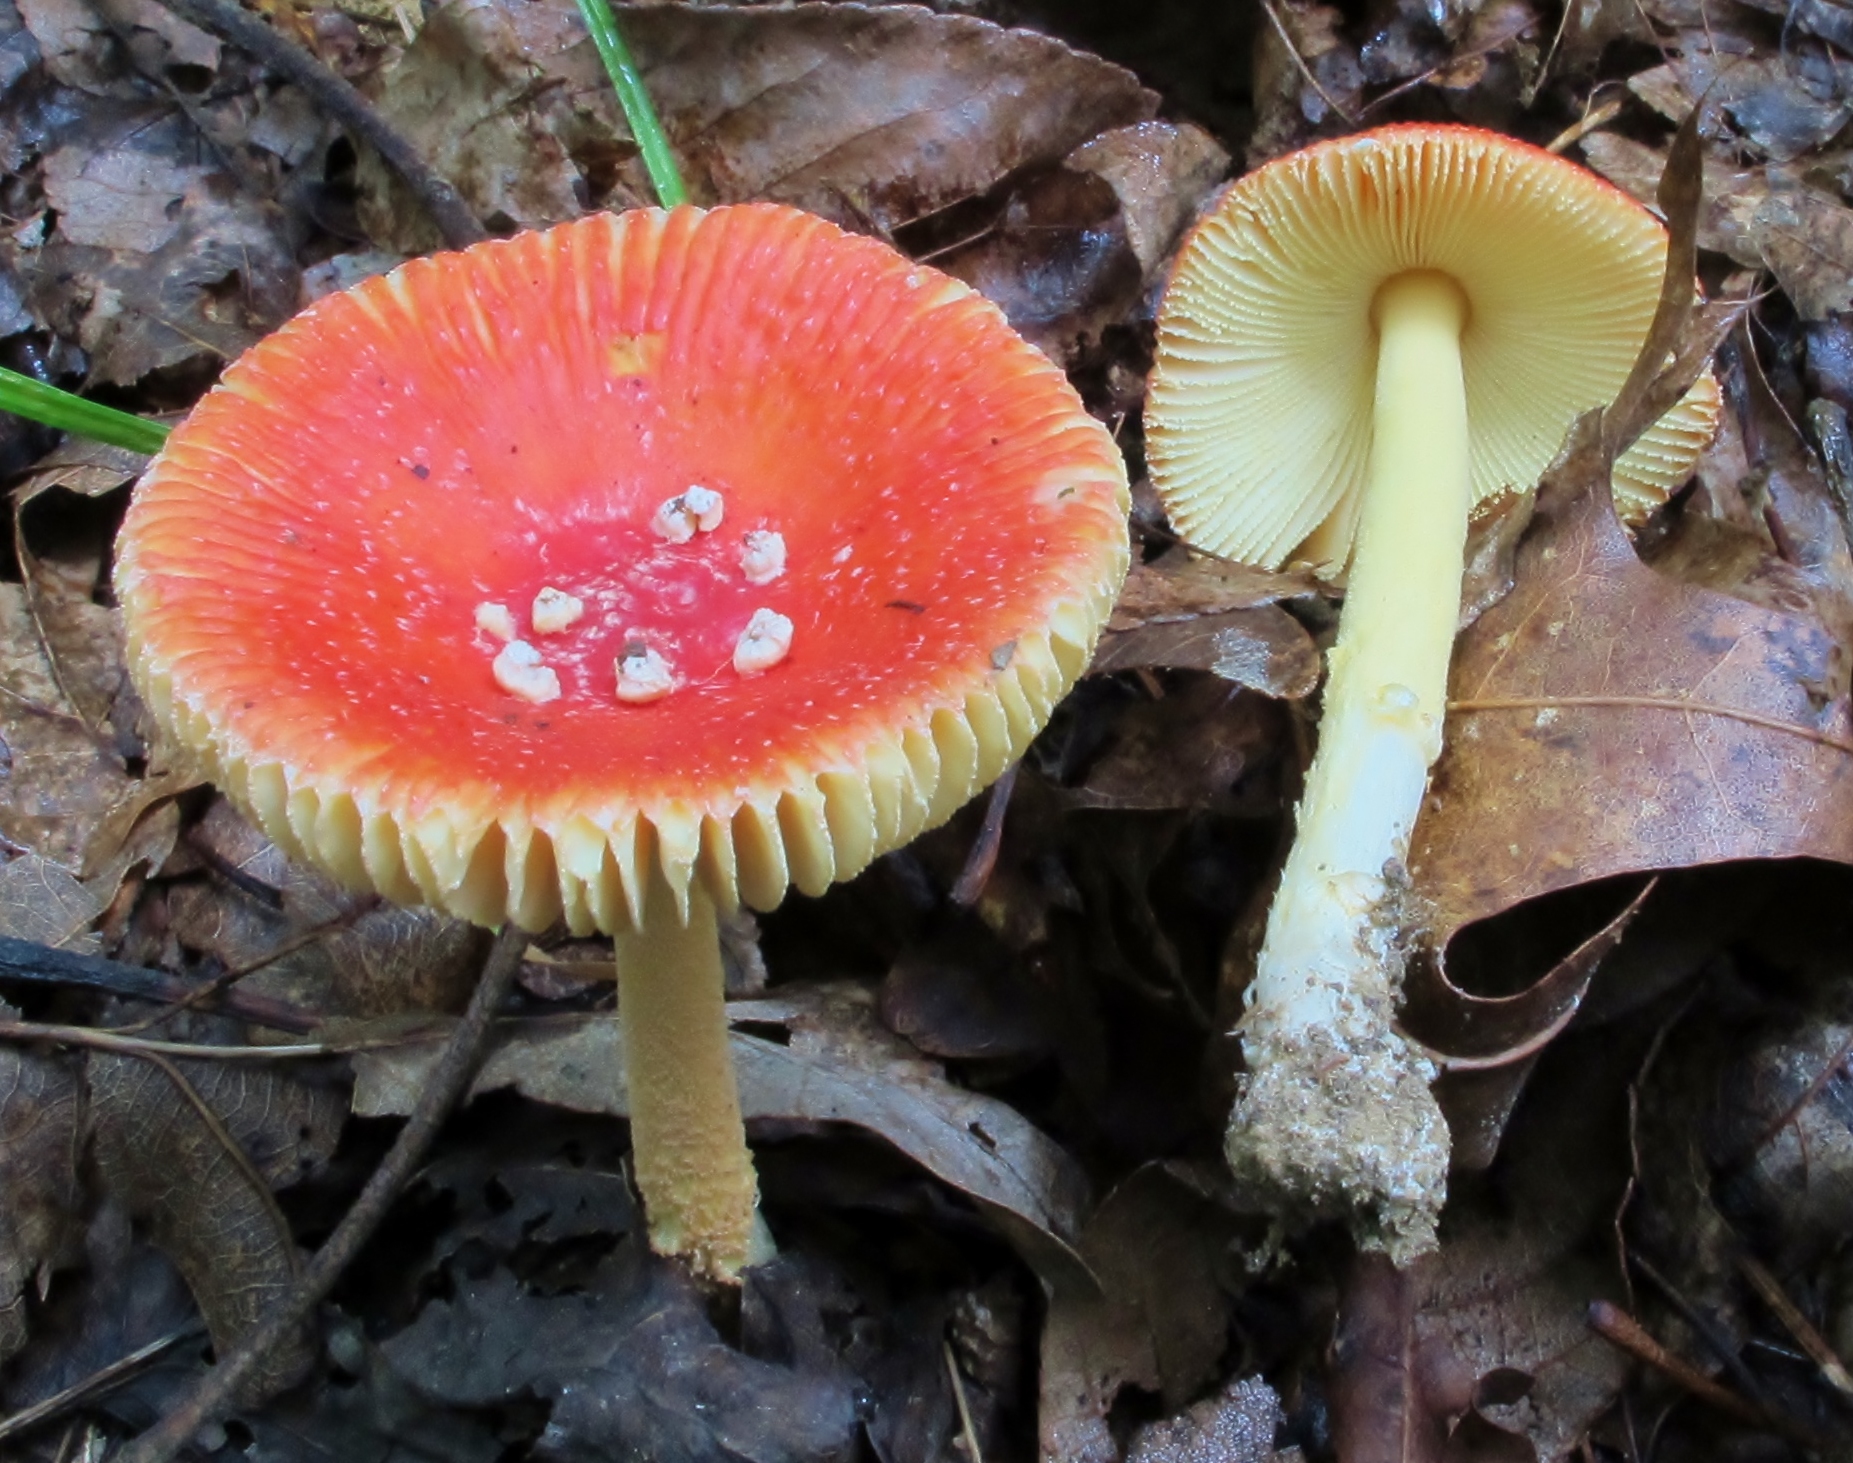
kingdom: Fungi
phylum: Basidiomycota
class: Agaricomycetes
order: Agaricales
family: Amanitaceae
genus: Amanita
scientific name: Amanita parcivolvata
